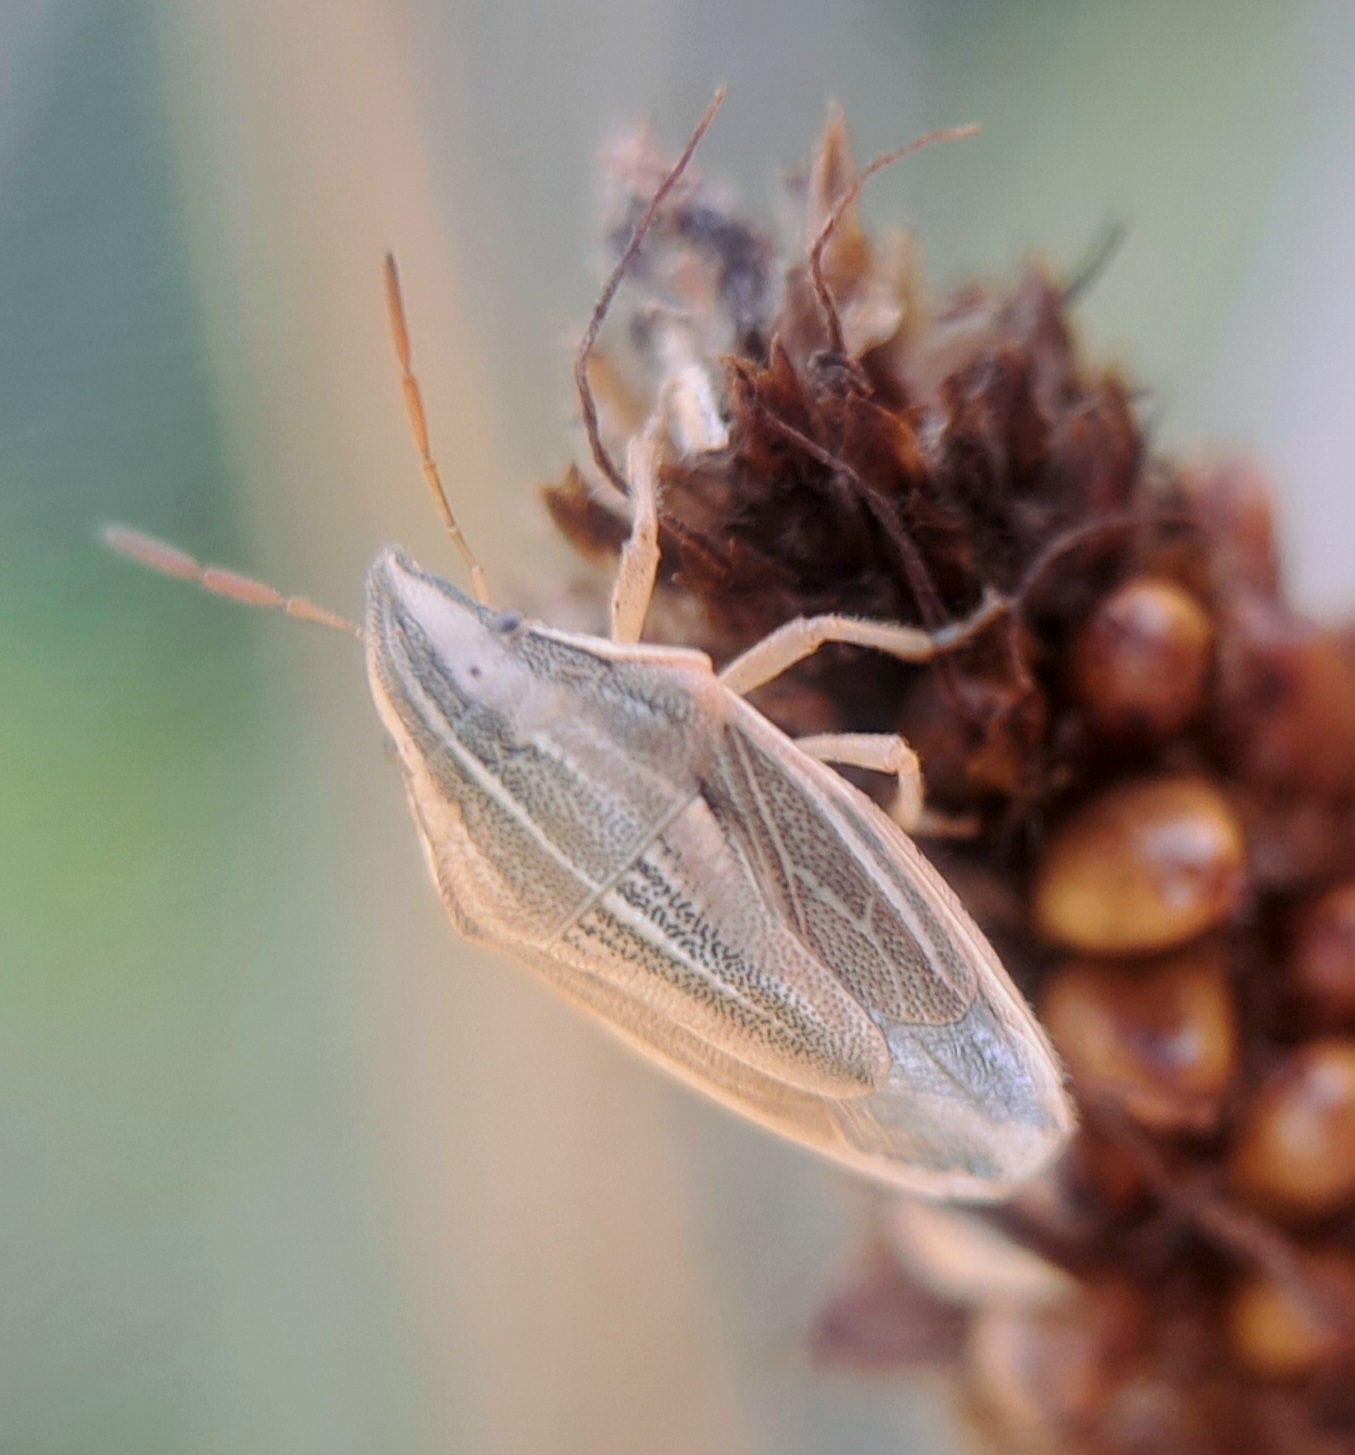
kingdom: Animalia
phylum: Arthropoda
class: Insecta
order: Hemiptera
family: Pentatomidae
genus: Aelia
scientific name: Aelia acuminata
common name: Bishop's mitre
